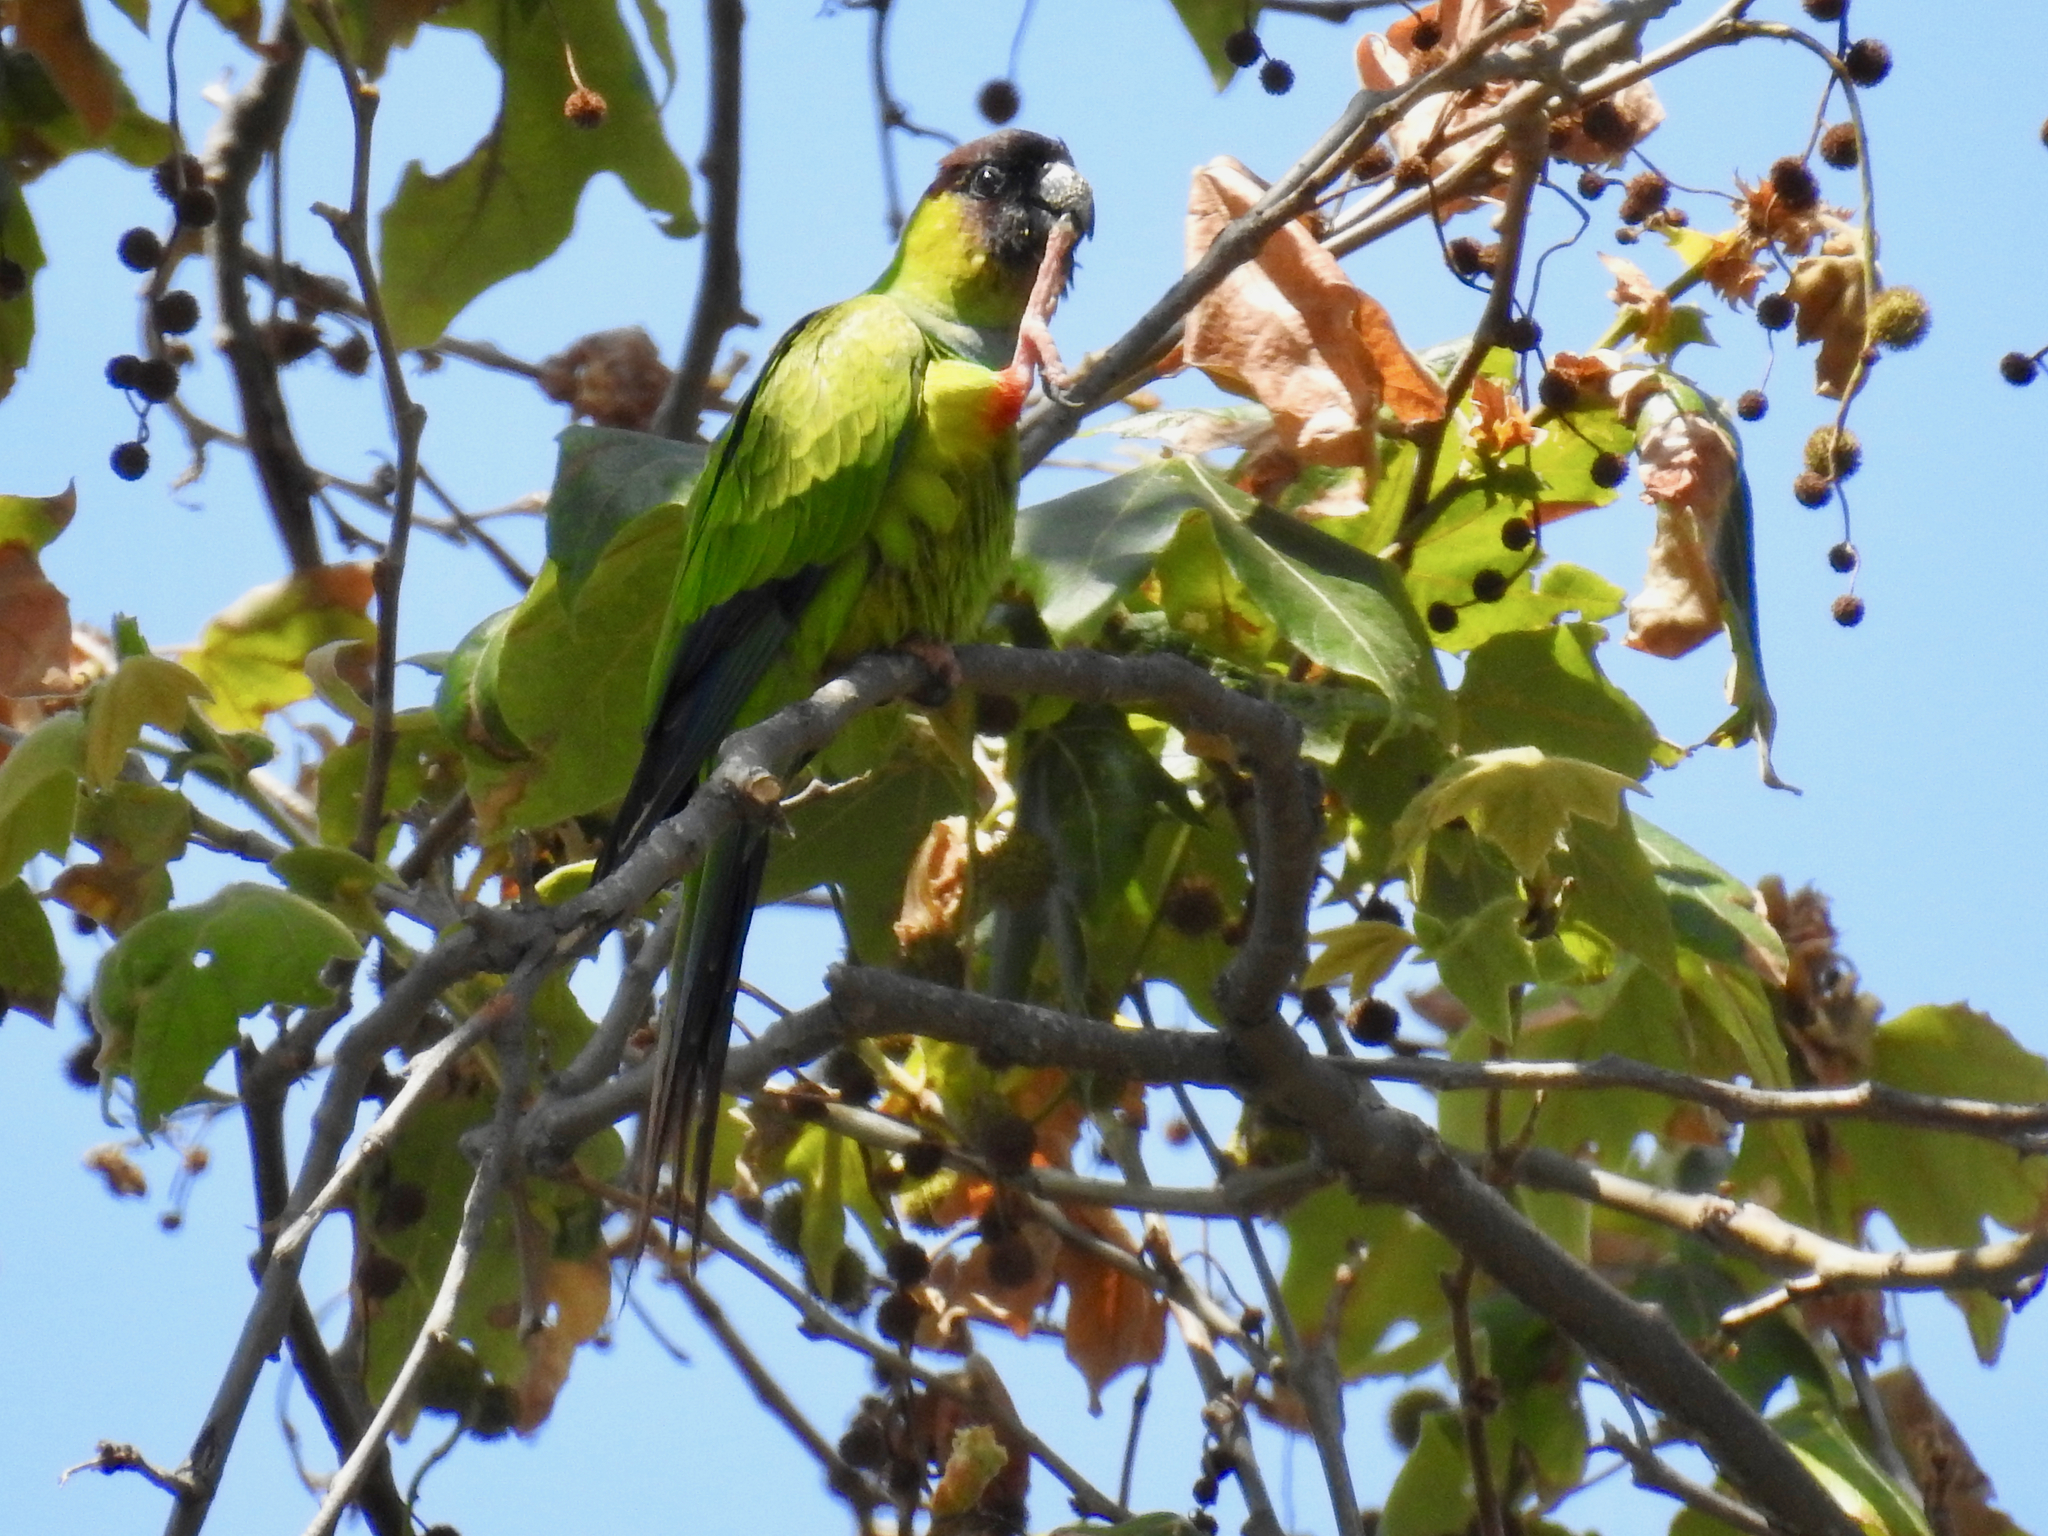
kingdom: Animalia
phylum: Chordata
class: Aves
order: Psittaciformes
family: Psittacidae
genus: Nandayus
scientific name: Nandayus nenday
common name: Nanday parakeet
